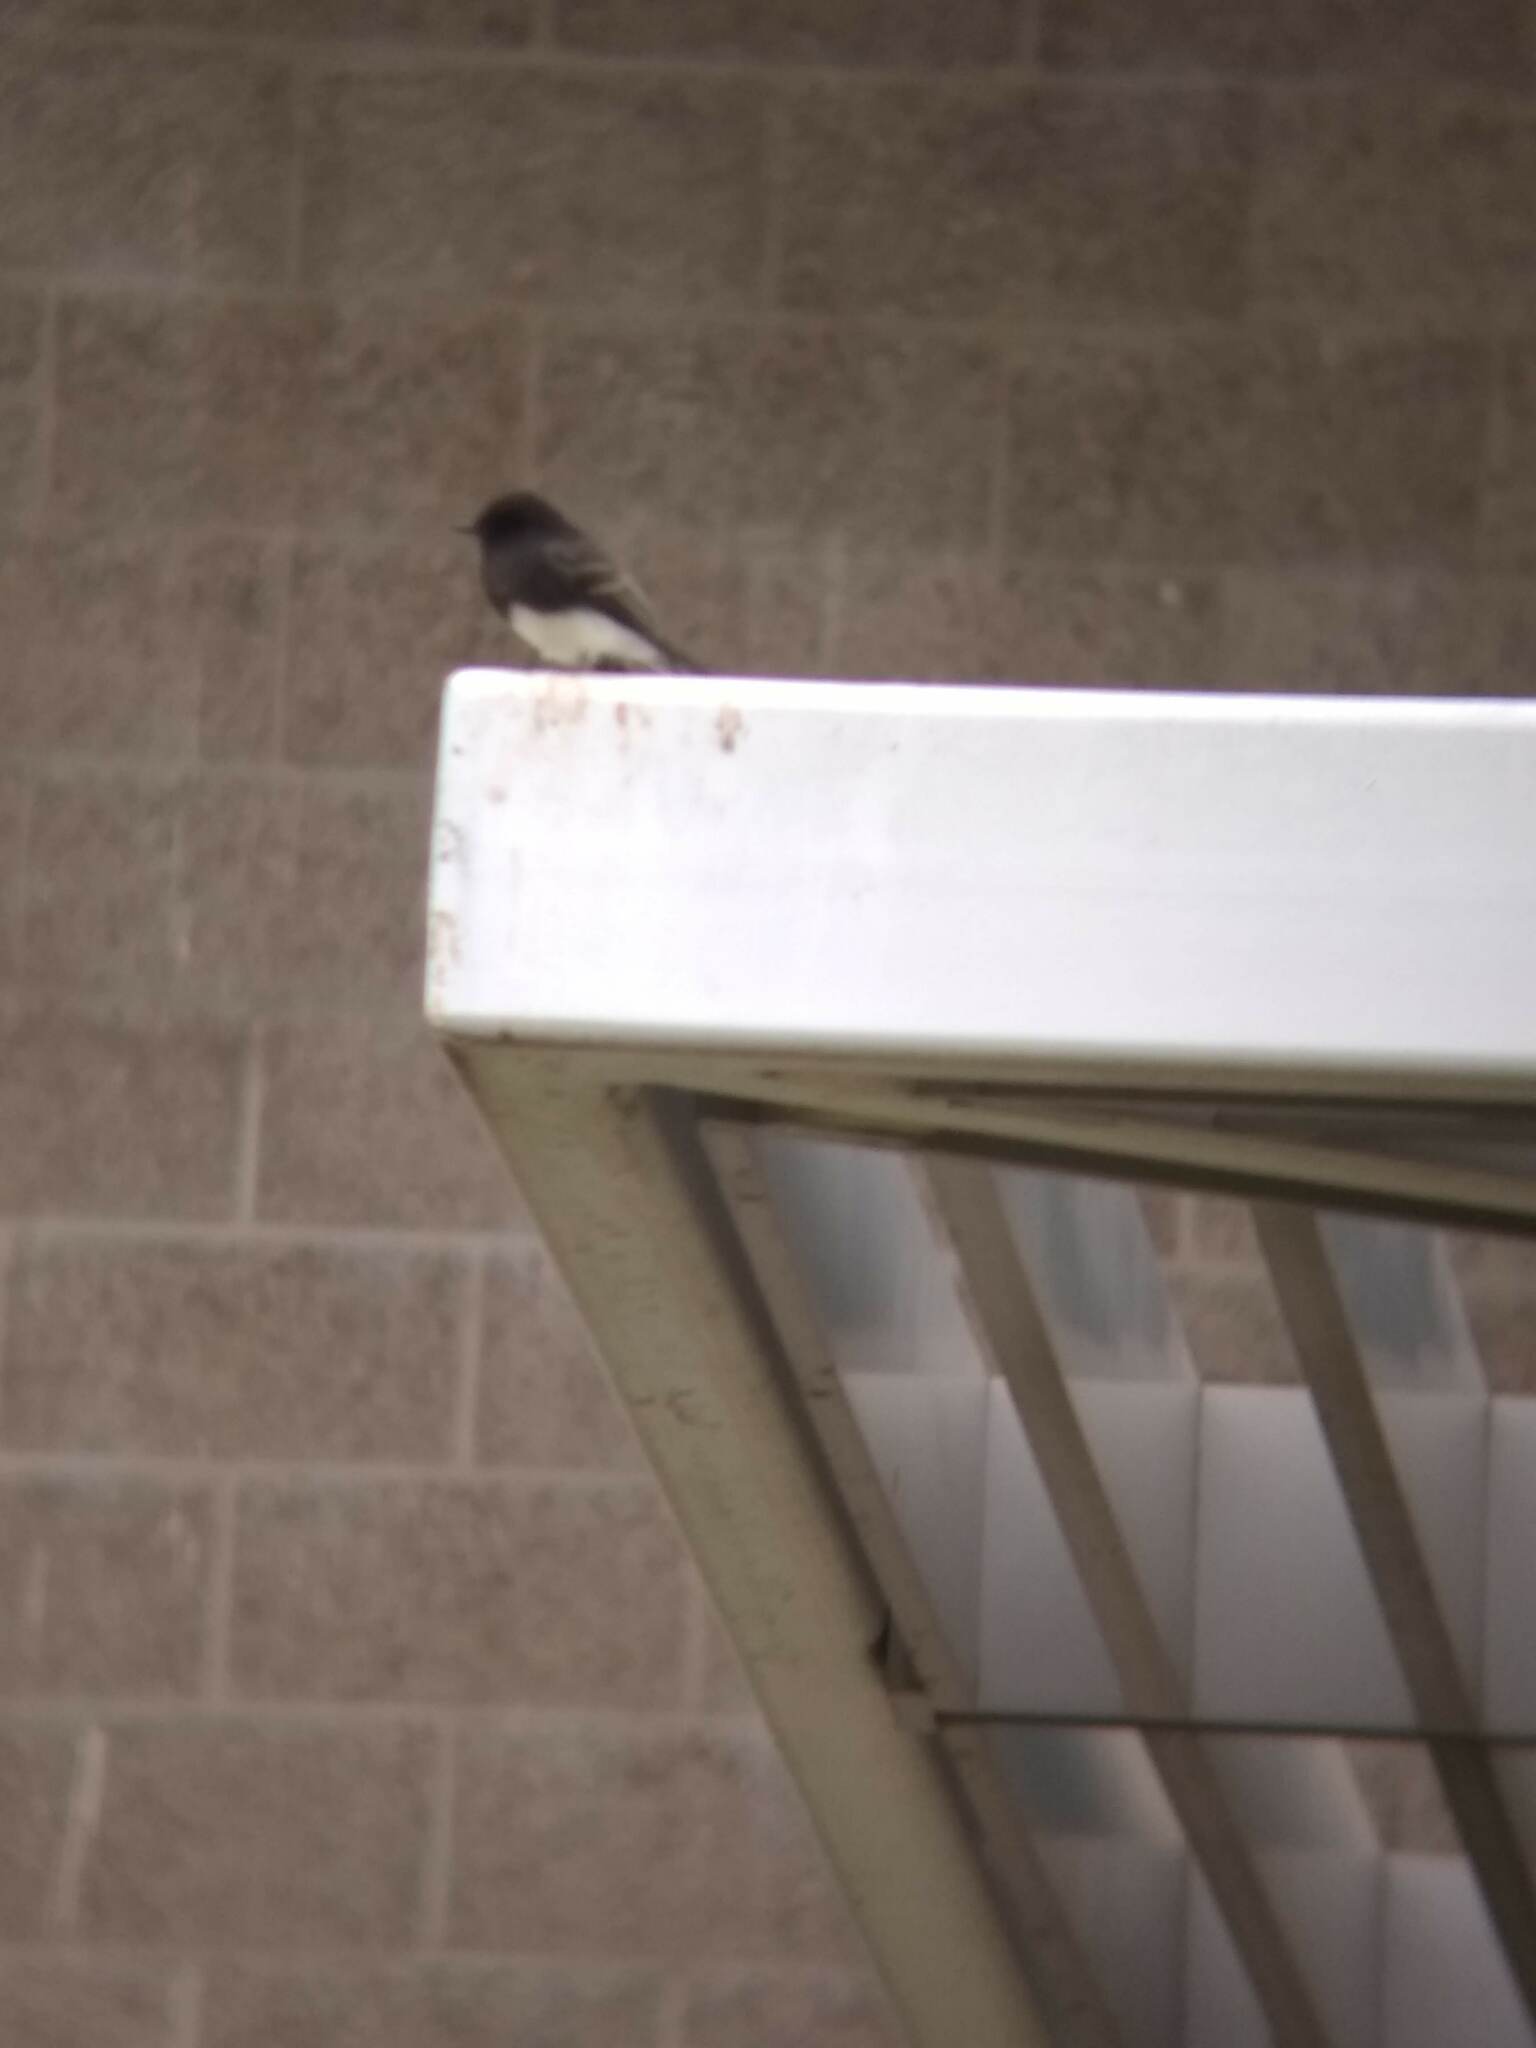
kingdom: Animalia
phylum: Chordata
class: Aves
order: Passeriformes
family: Tyrannidae
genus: Sayornis
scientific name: Sayornis nigricans
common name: Black phoebe
